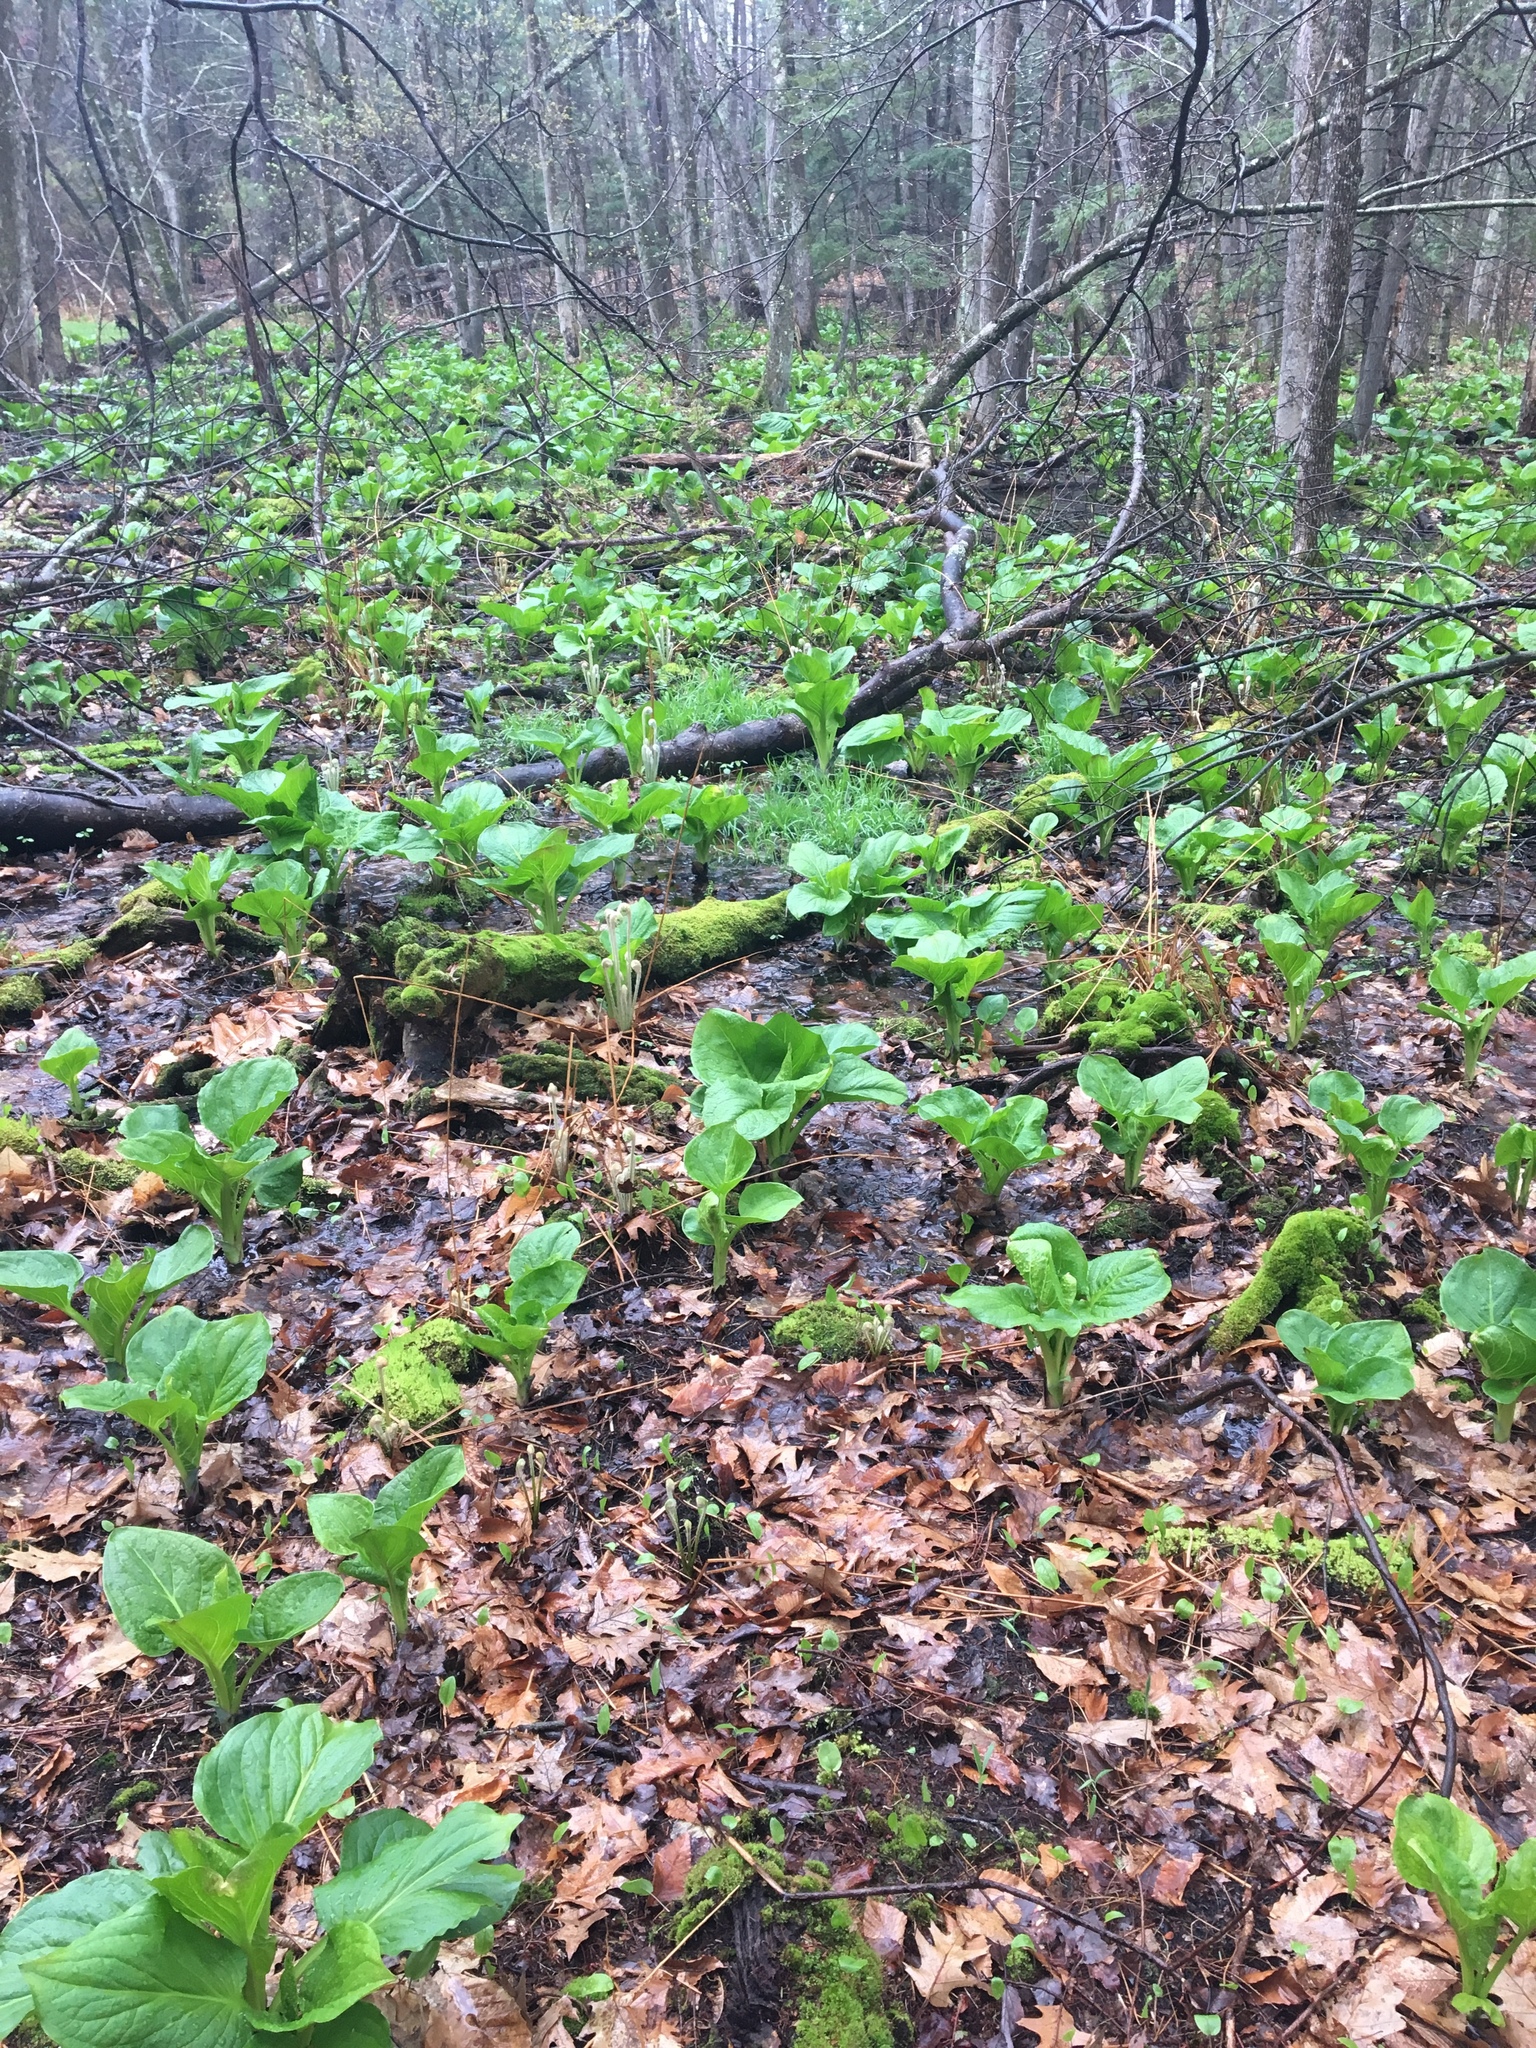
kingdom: Plantae
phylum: Tracheophyta
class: Liliopsida
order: Alismatales
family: Araceae
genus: Symplocarpus
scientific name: Symplocarpus foetidus
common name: Eastern skunk cabbage
